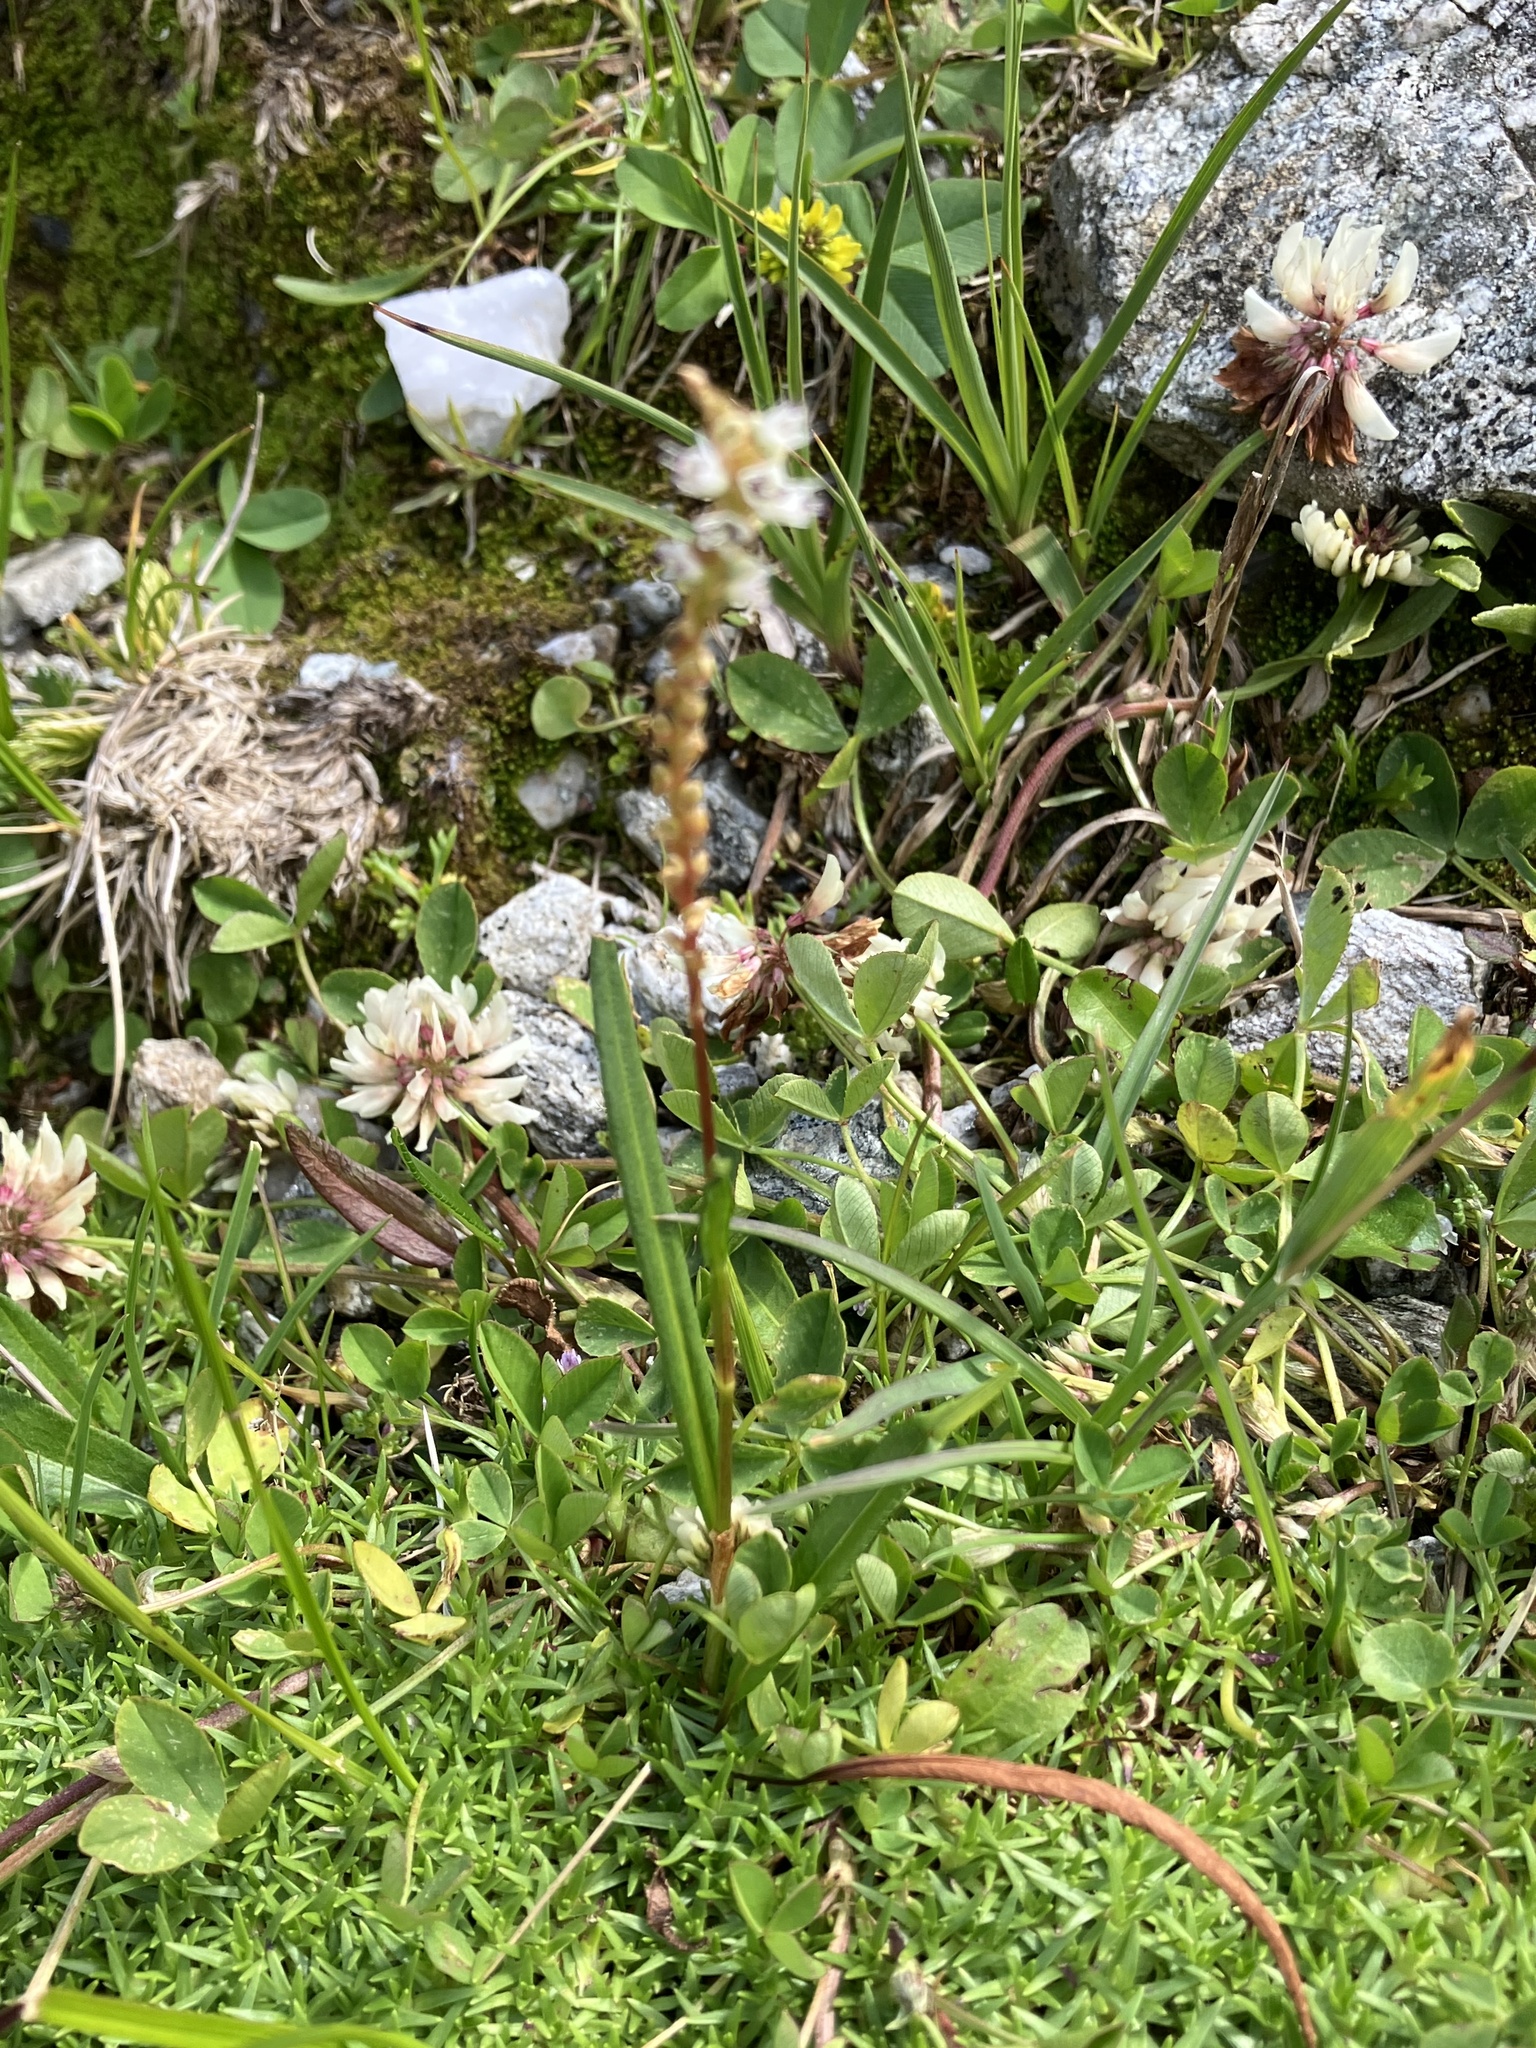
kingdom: Plantae
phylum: Tracheophyta
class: Magnoliopsida
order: Caryophyllales
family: Polygonaceae
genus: Bistorta
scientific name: Bistorta vivipara
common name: Alpine bistort
